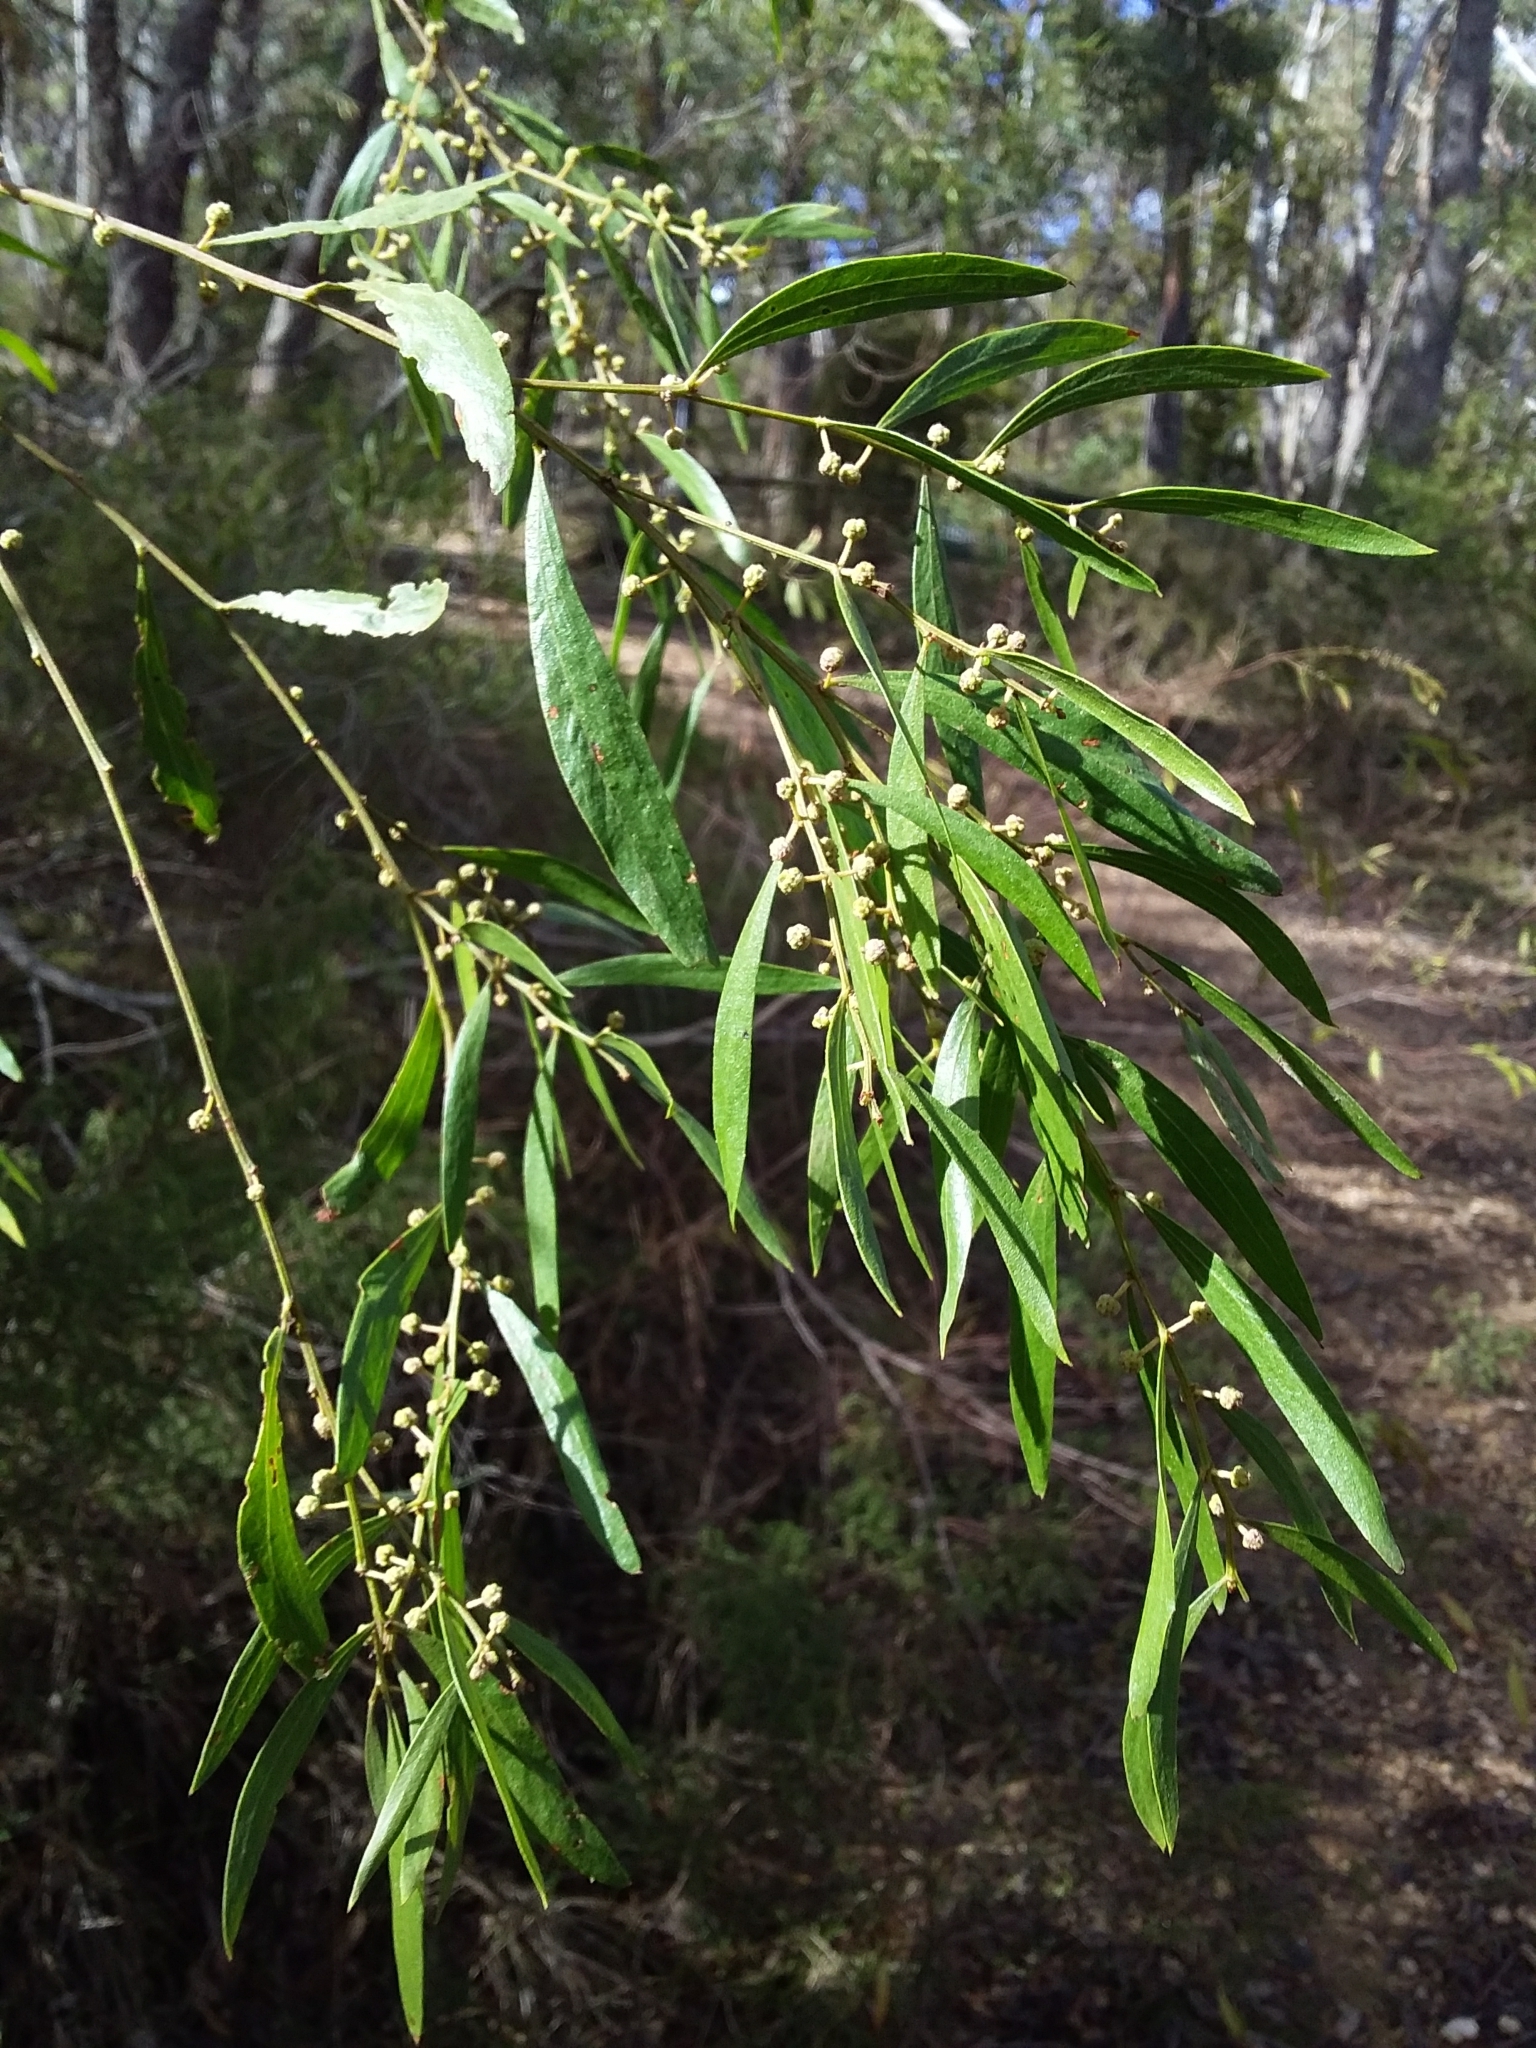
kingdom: Plantae
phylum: Tracheophyta
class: Magnoliopsida
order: Fabales
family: Fabaceae
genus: Acacia
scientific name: Acacia verniciflua
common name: Varnish wattle
